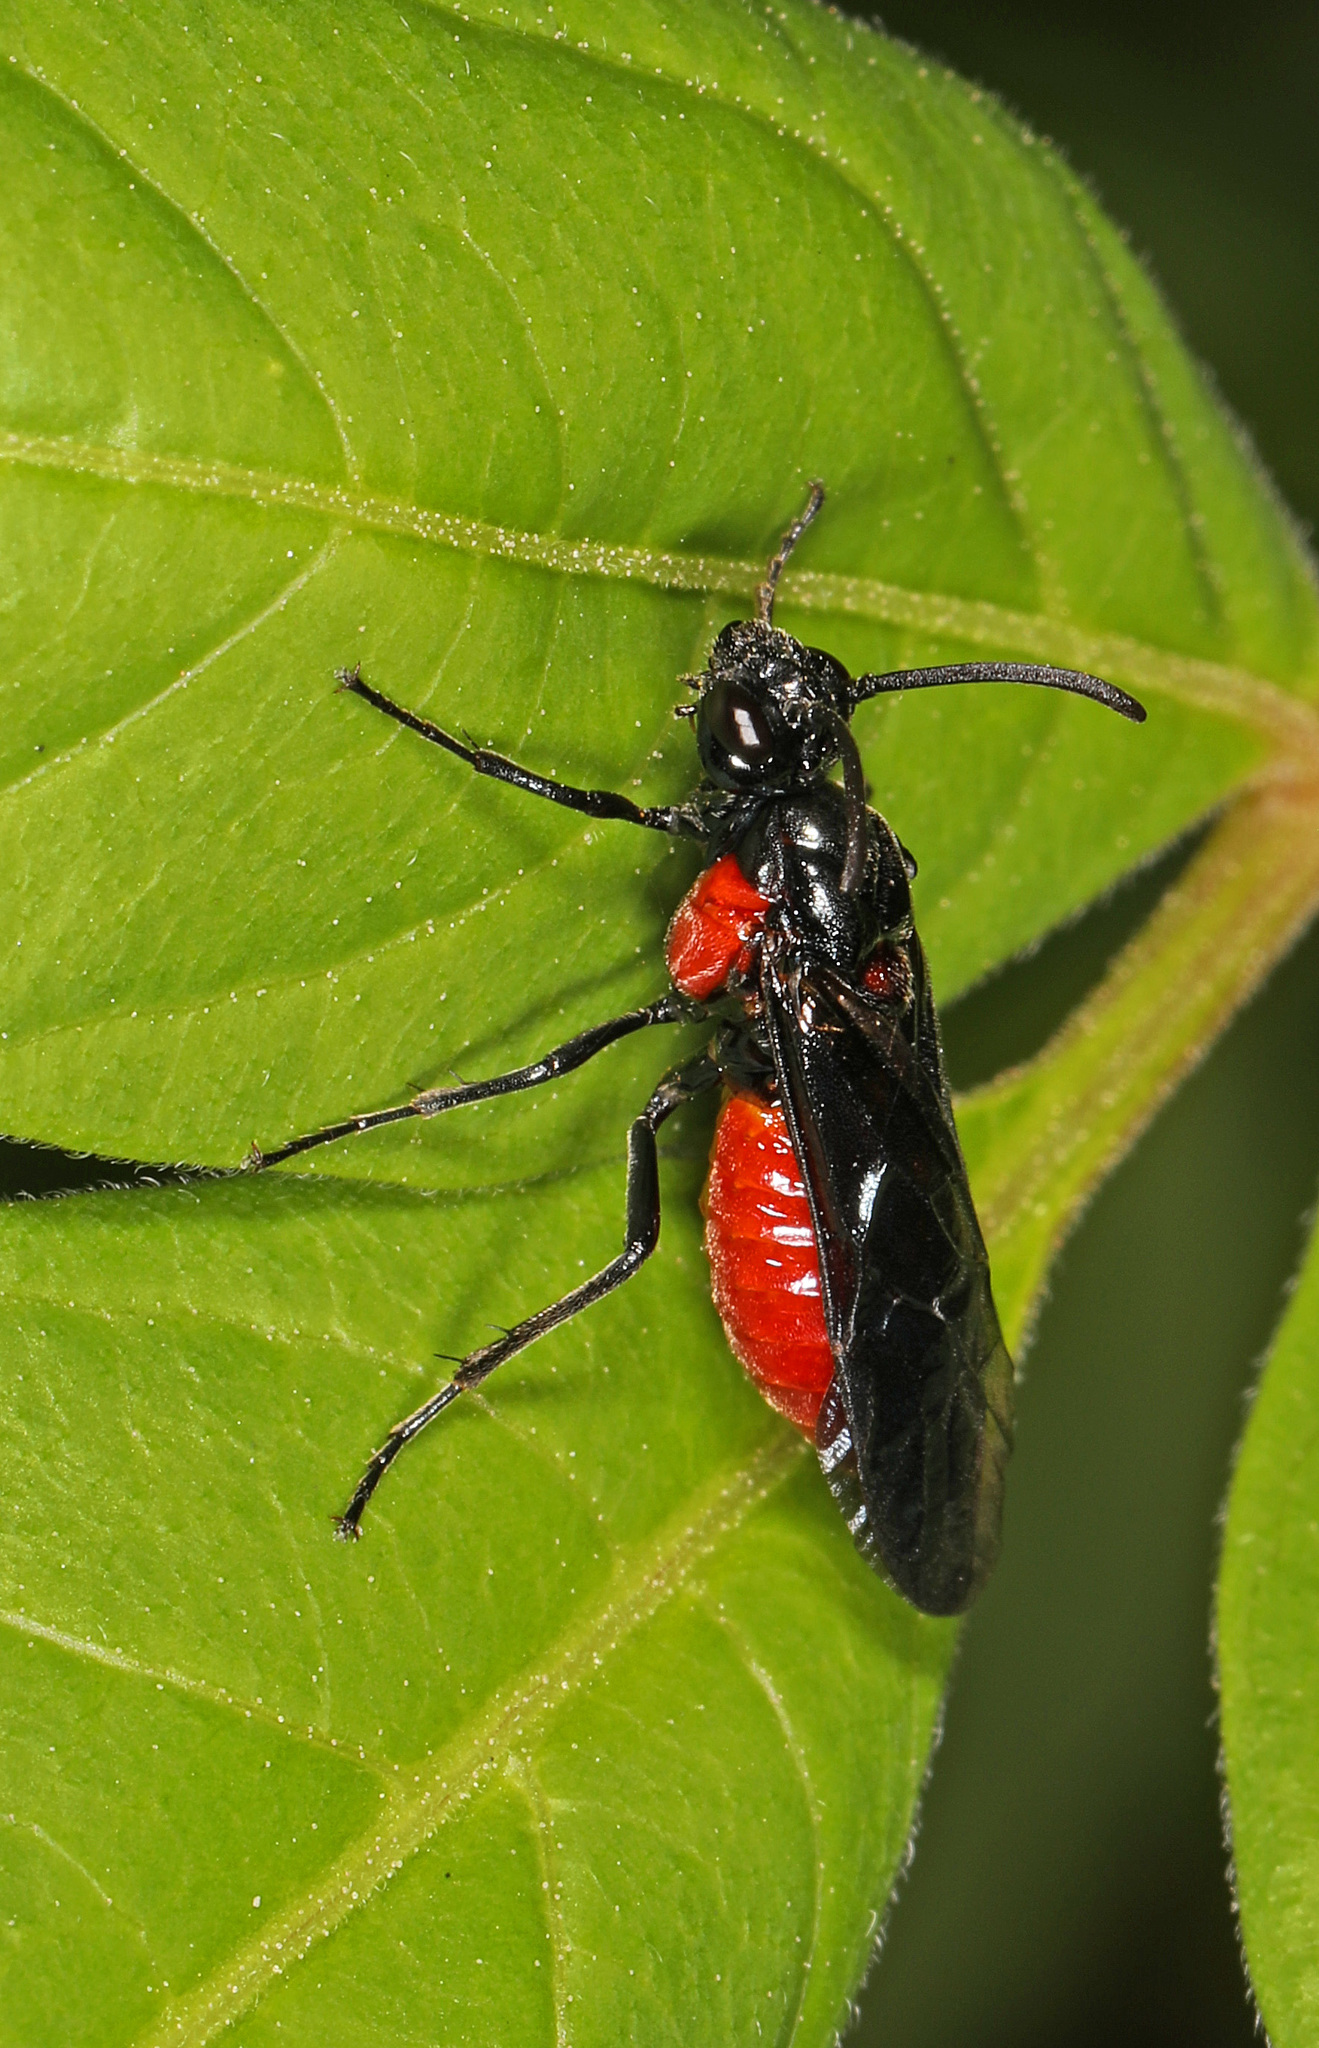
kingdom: Animalia
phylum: Arthropoda
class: Insecta
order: Hymenoptera
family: Argidae
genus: Arge
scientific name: Arge humeralis
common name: Poison ivy sawfly
